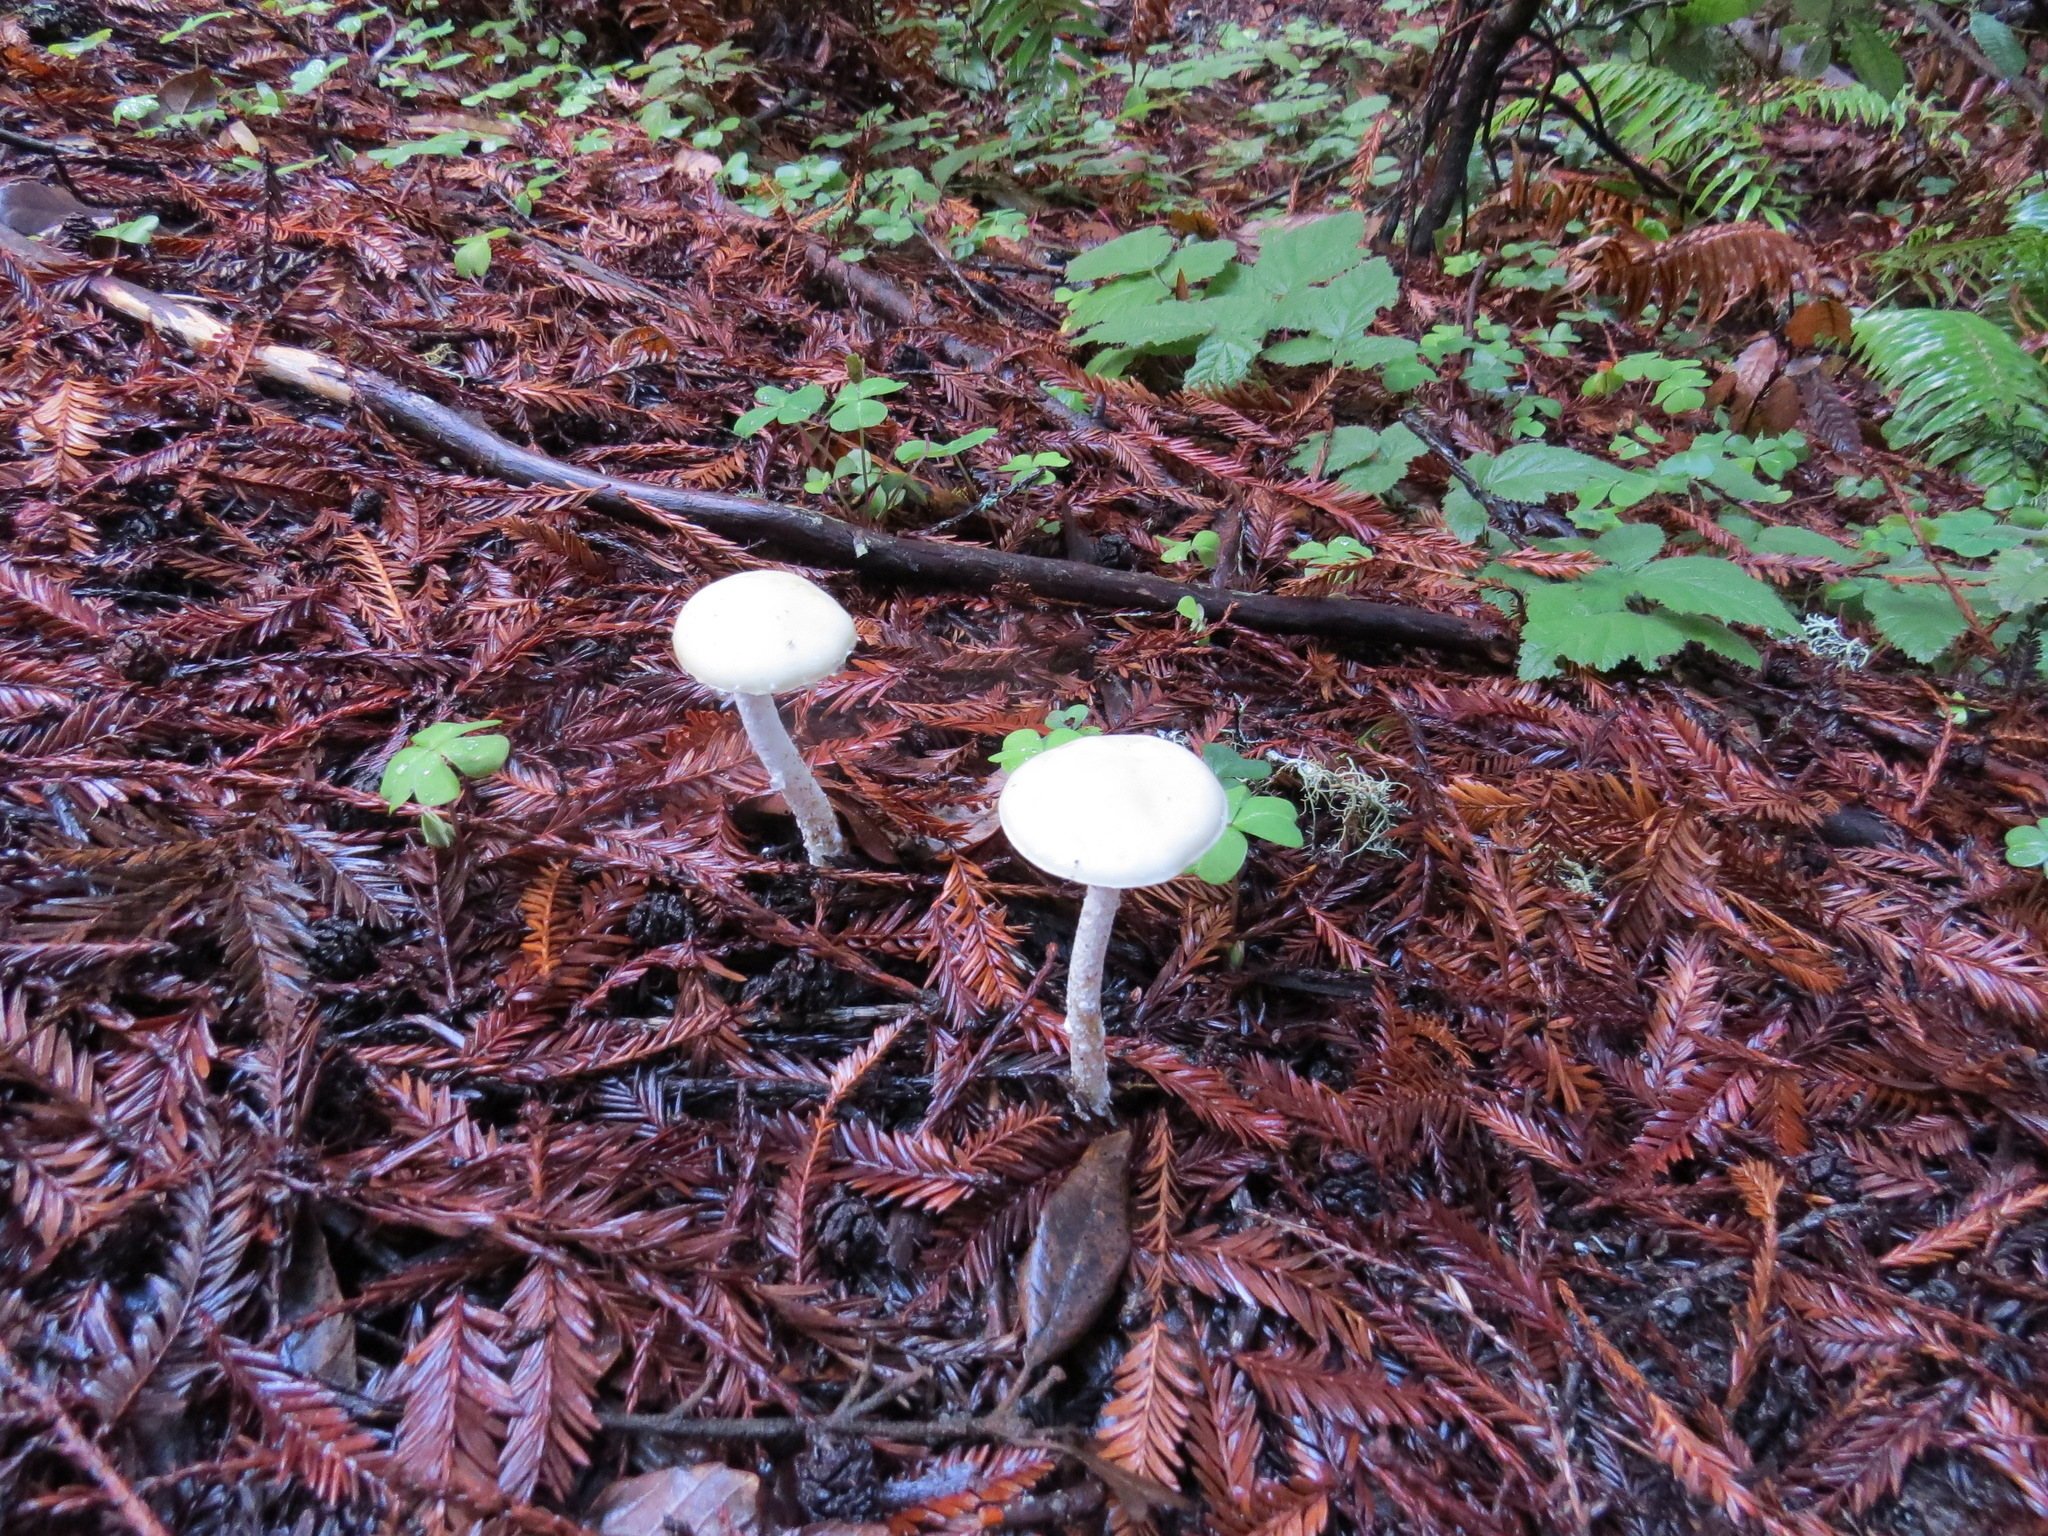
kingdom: Fungi
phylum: Basidiomycota
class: Agaricomycetes
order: Agaricales
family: Strophariaceae
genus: Stropharia
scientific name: Stropharia ambigua
